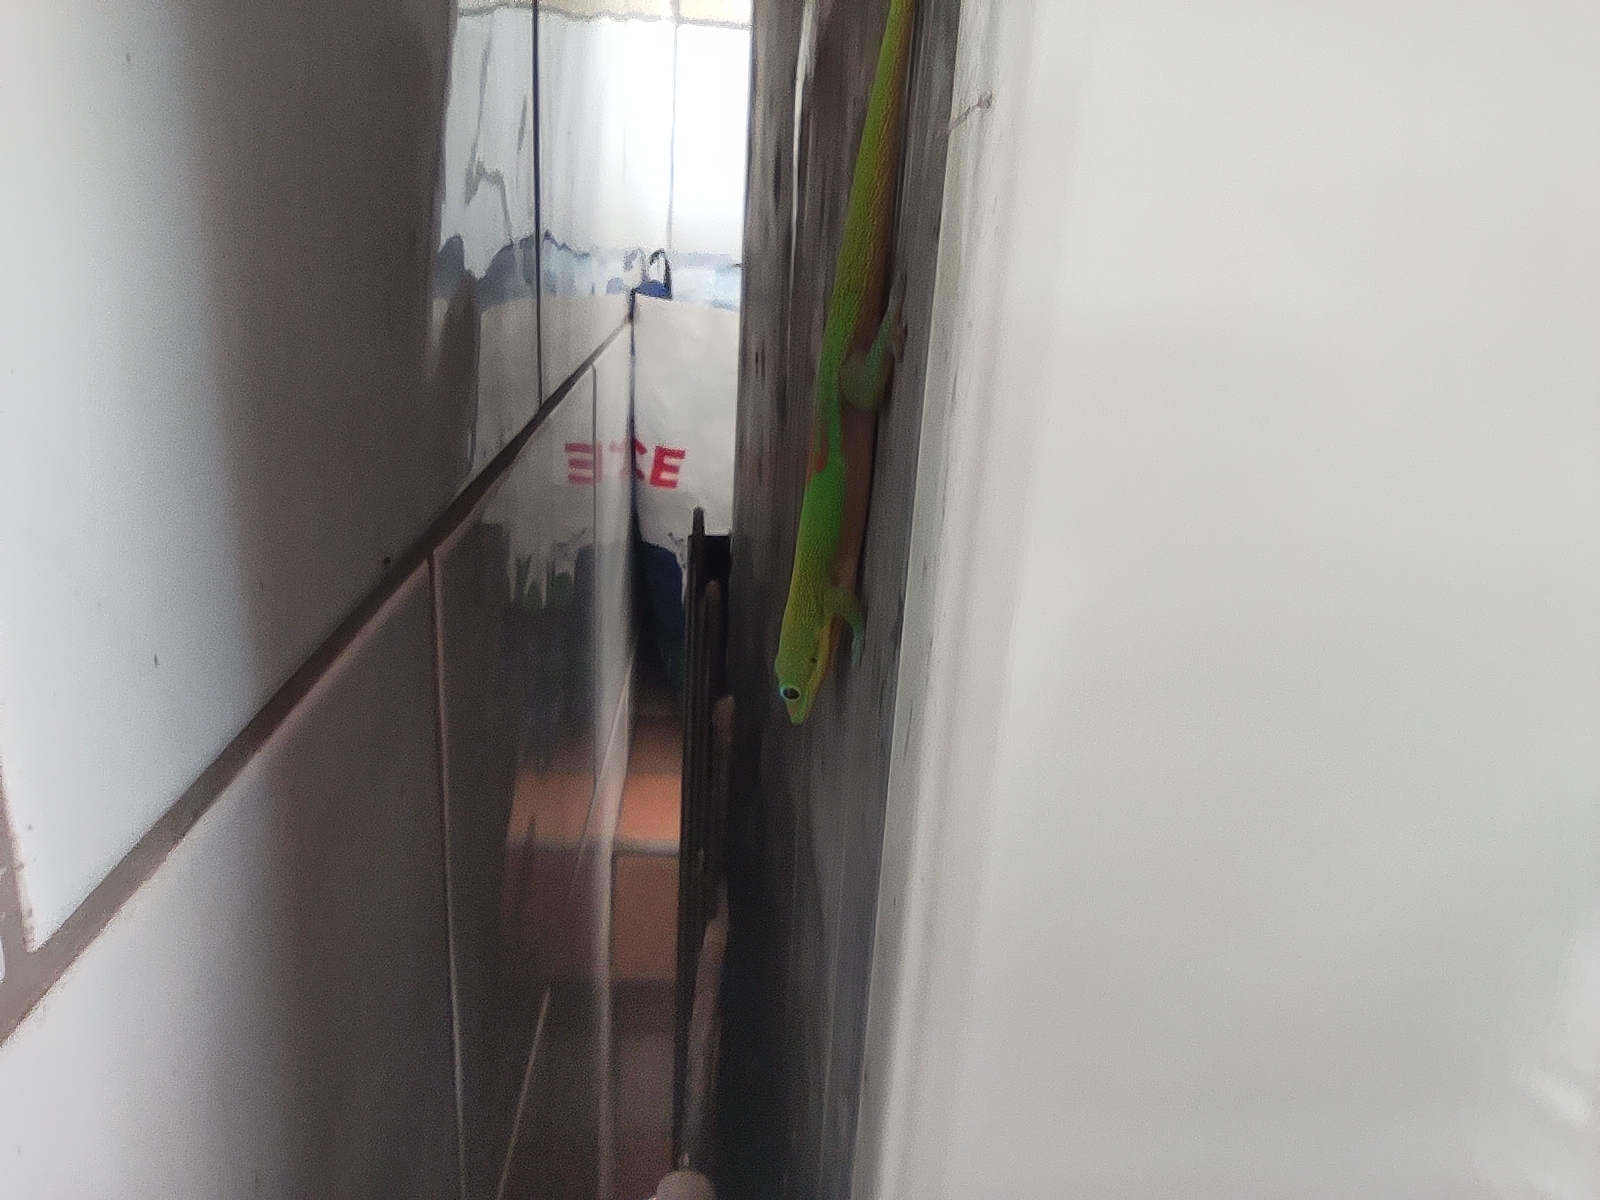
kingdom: Animalia
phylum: Chordata
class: Squamata
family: Gekkonidae
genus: Phelsuma
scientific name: Phelsuma laticauda
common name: Gold dust day gecko
